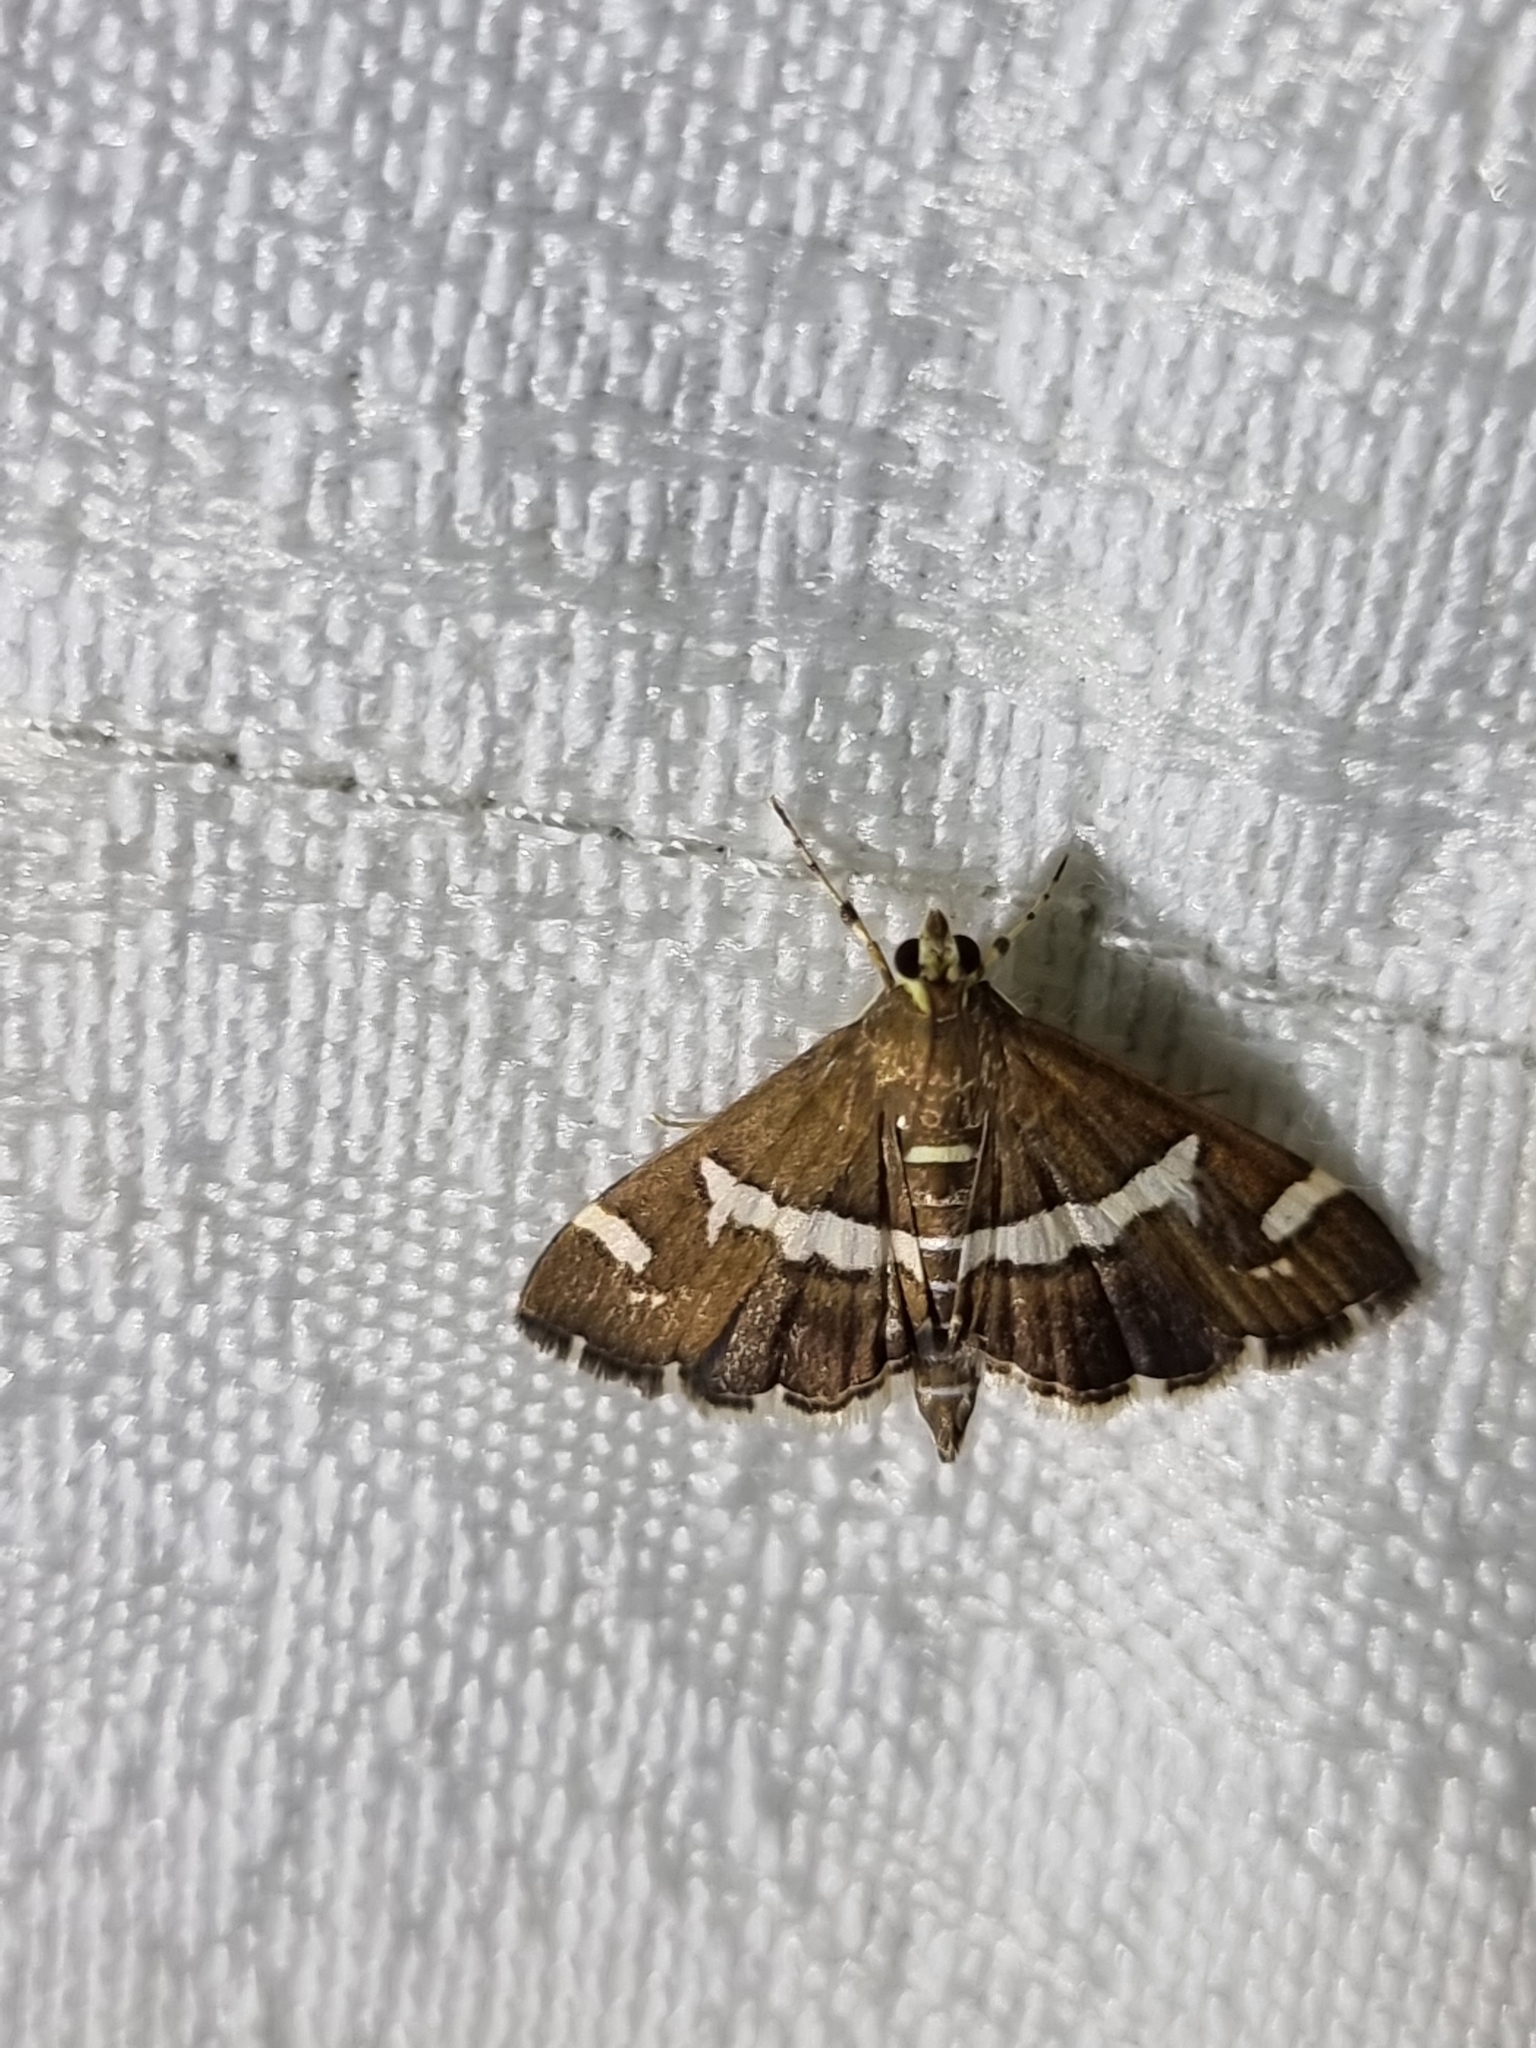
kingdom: Animalia
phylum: Arthropoda
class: Insecta
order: Lepidoptera
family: Crambidae
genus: Spoladea
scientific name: Spoladea recurvalis
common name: Beet webworm moth
